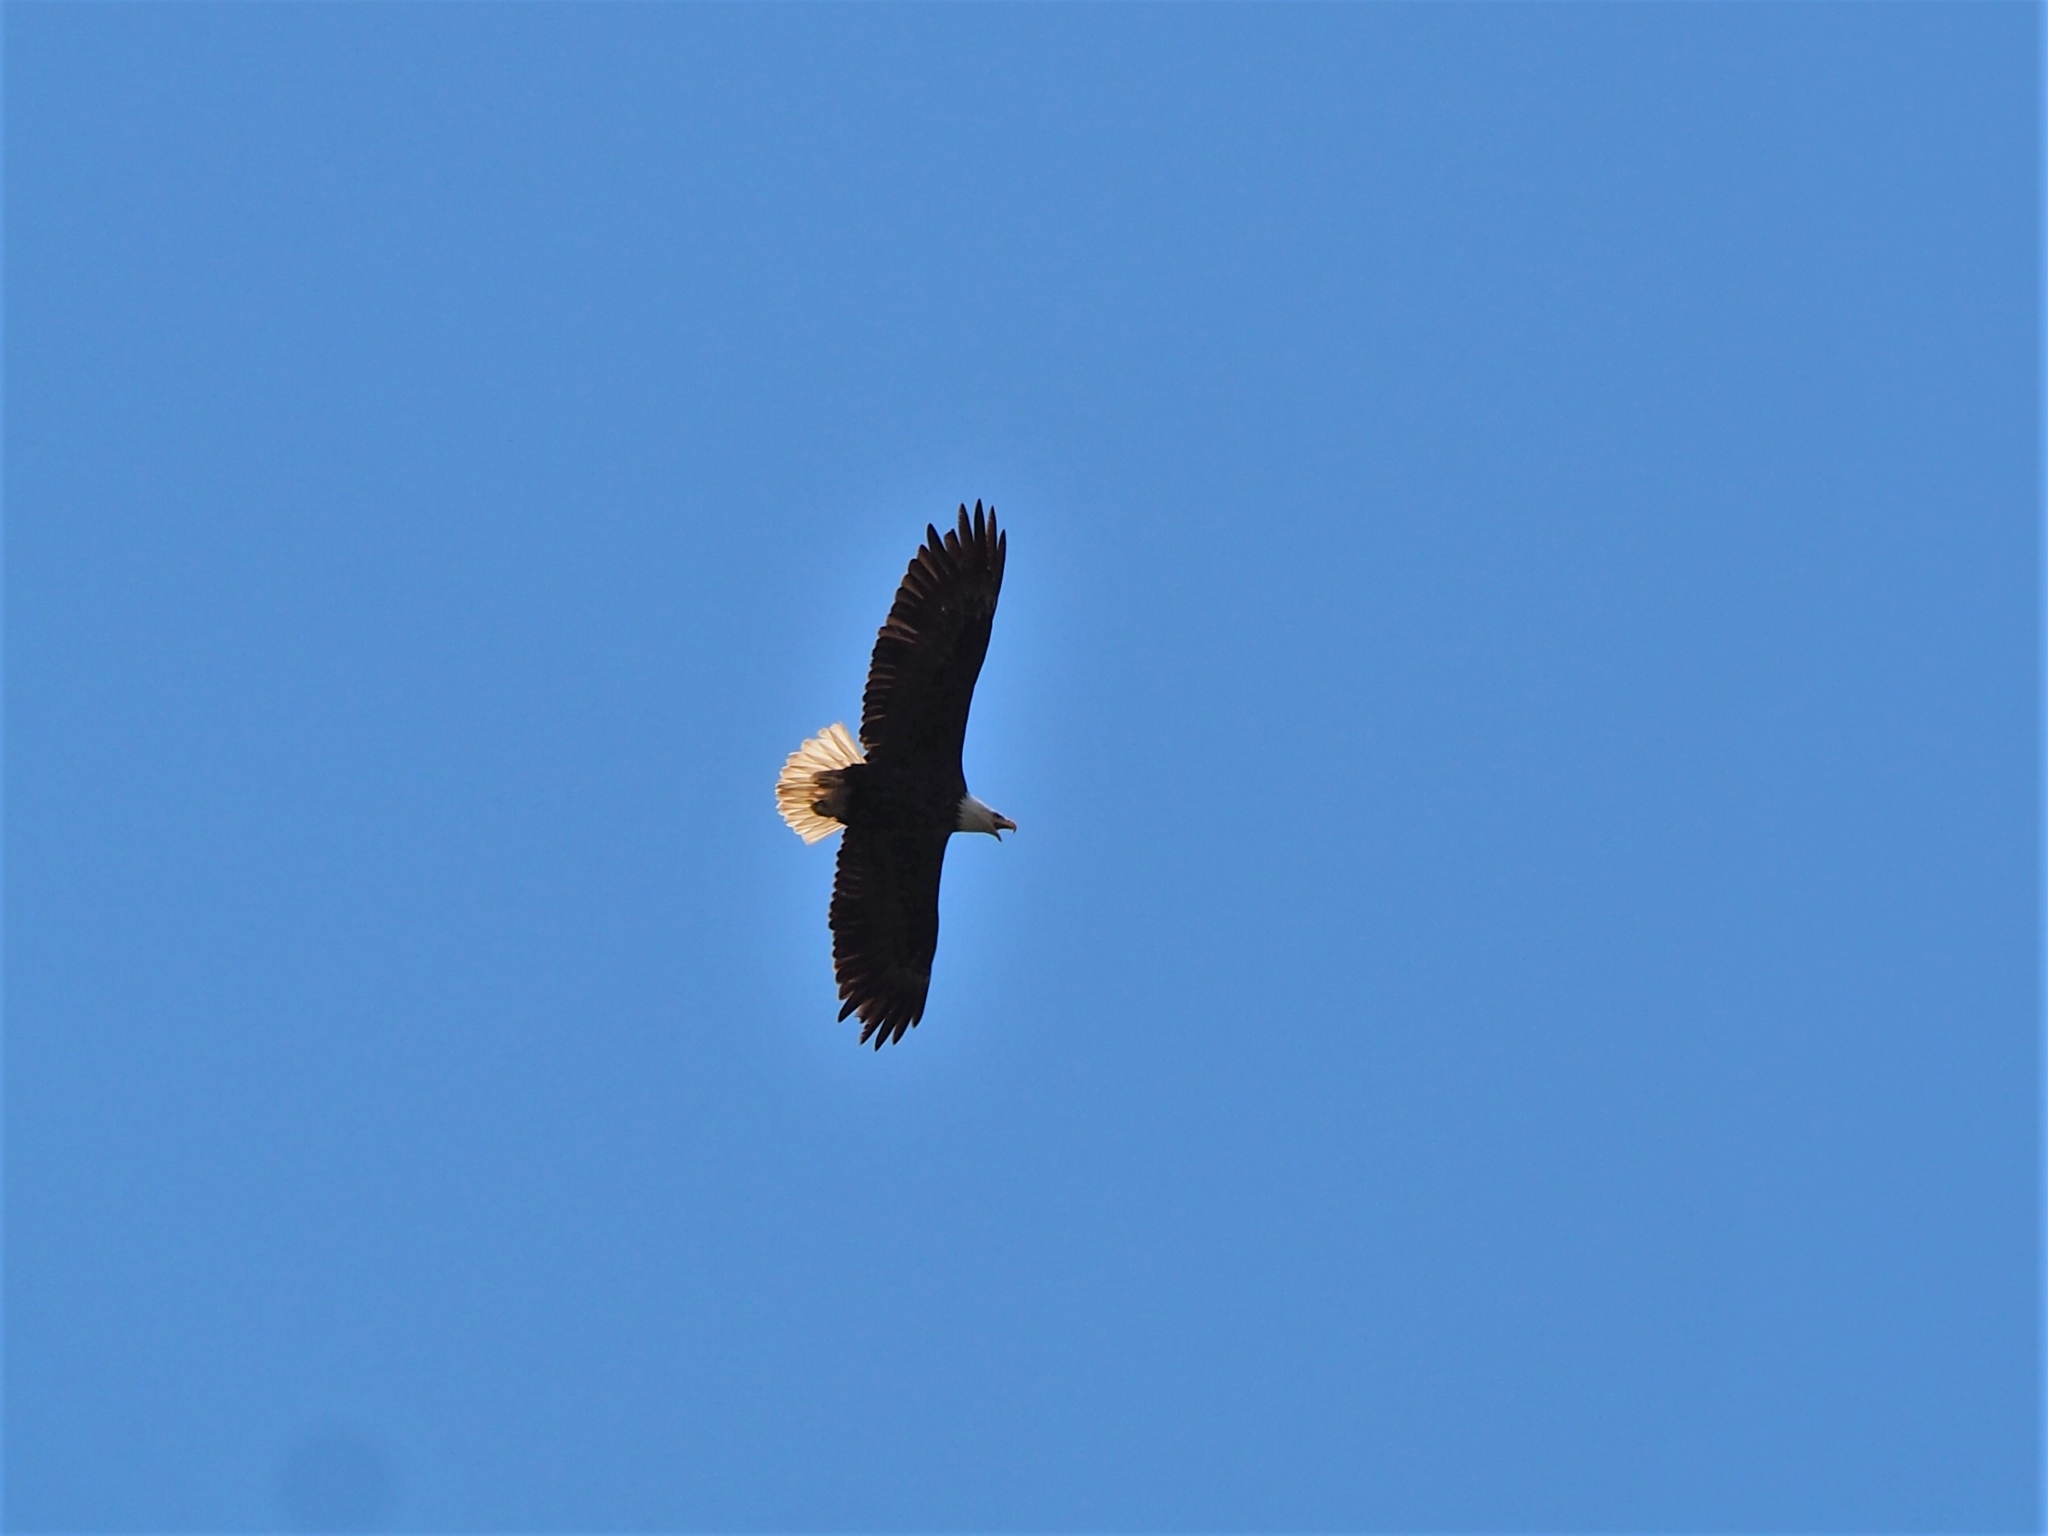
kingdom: Animalia
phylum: Chordata
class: Aves
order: Accipitriformes
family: Accipitridae
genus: Haliaeetus
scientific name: Haliaeetus leucocephalus
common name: Bald eagle
